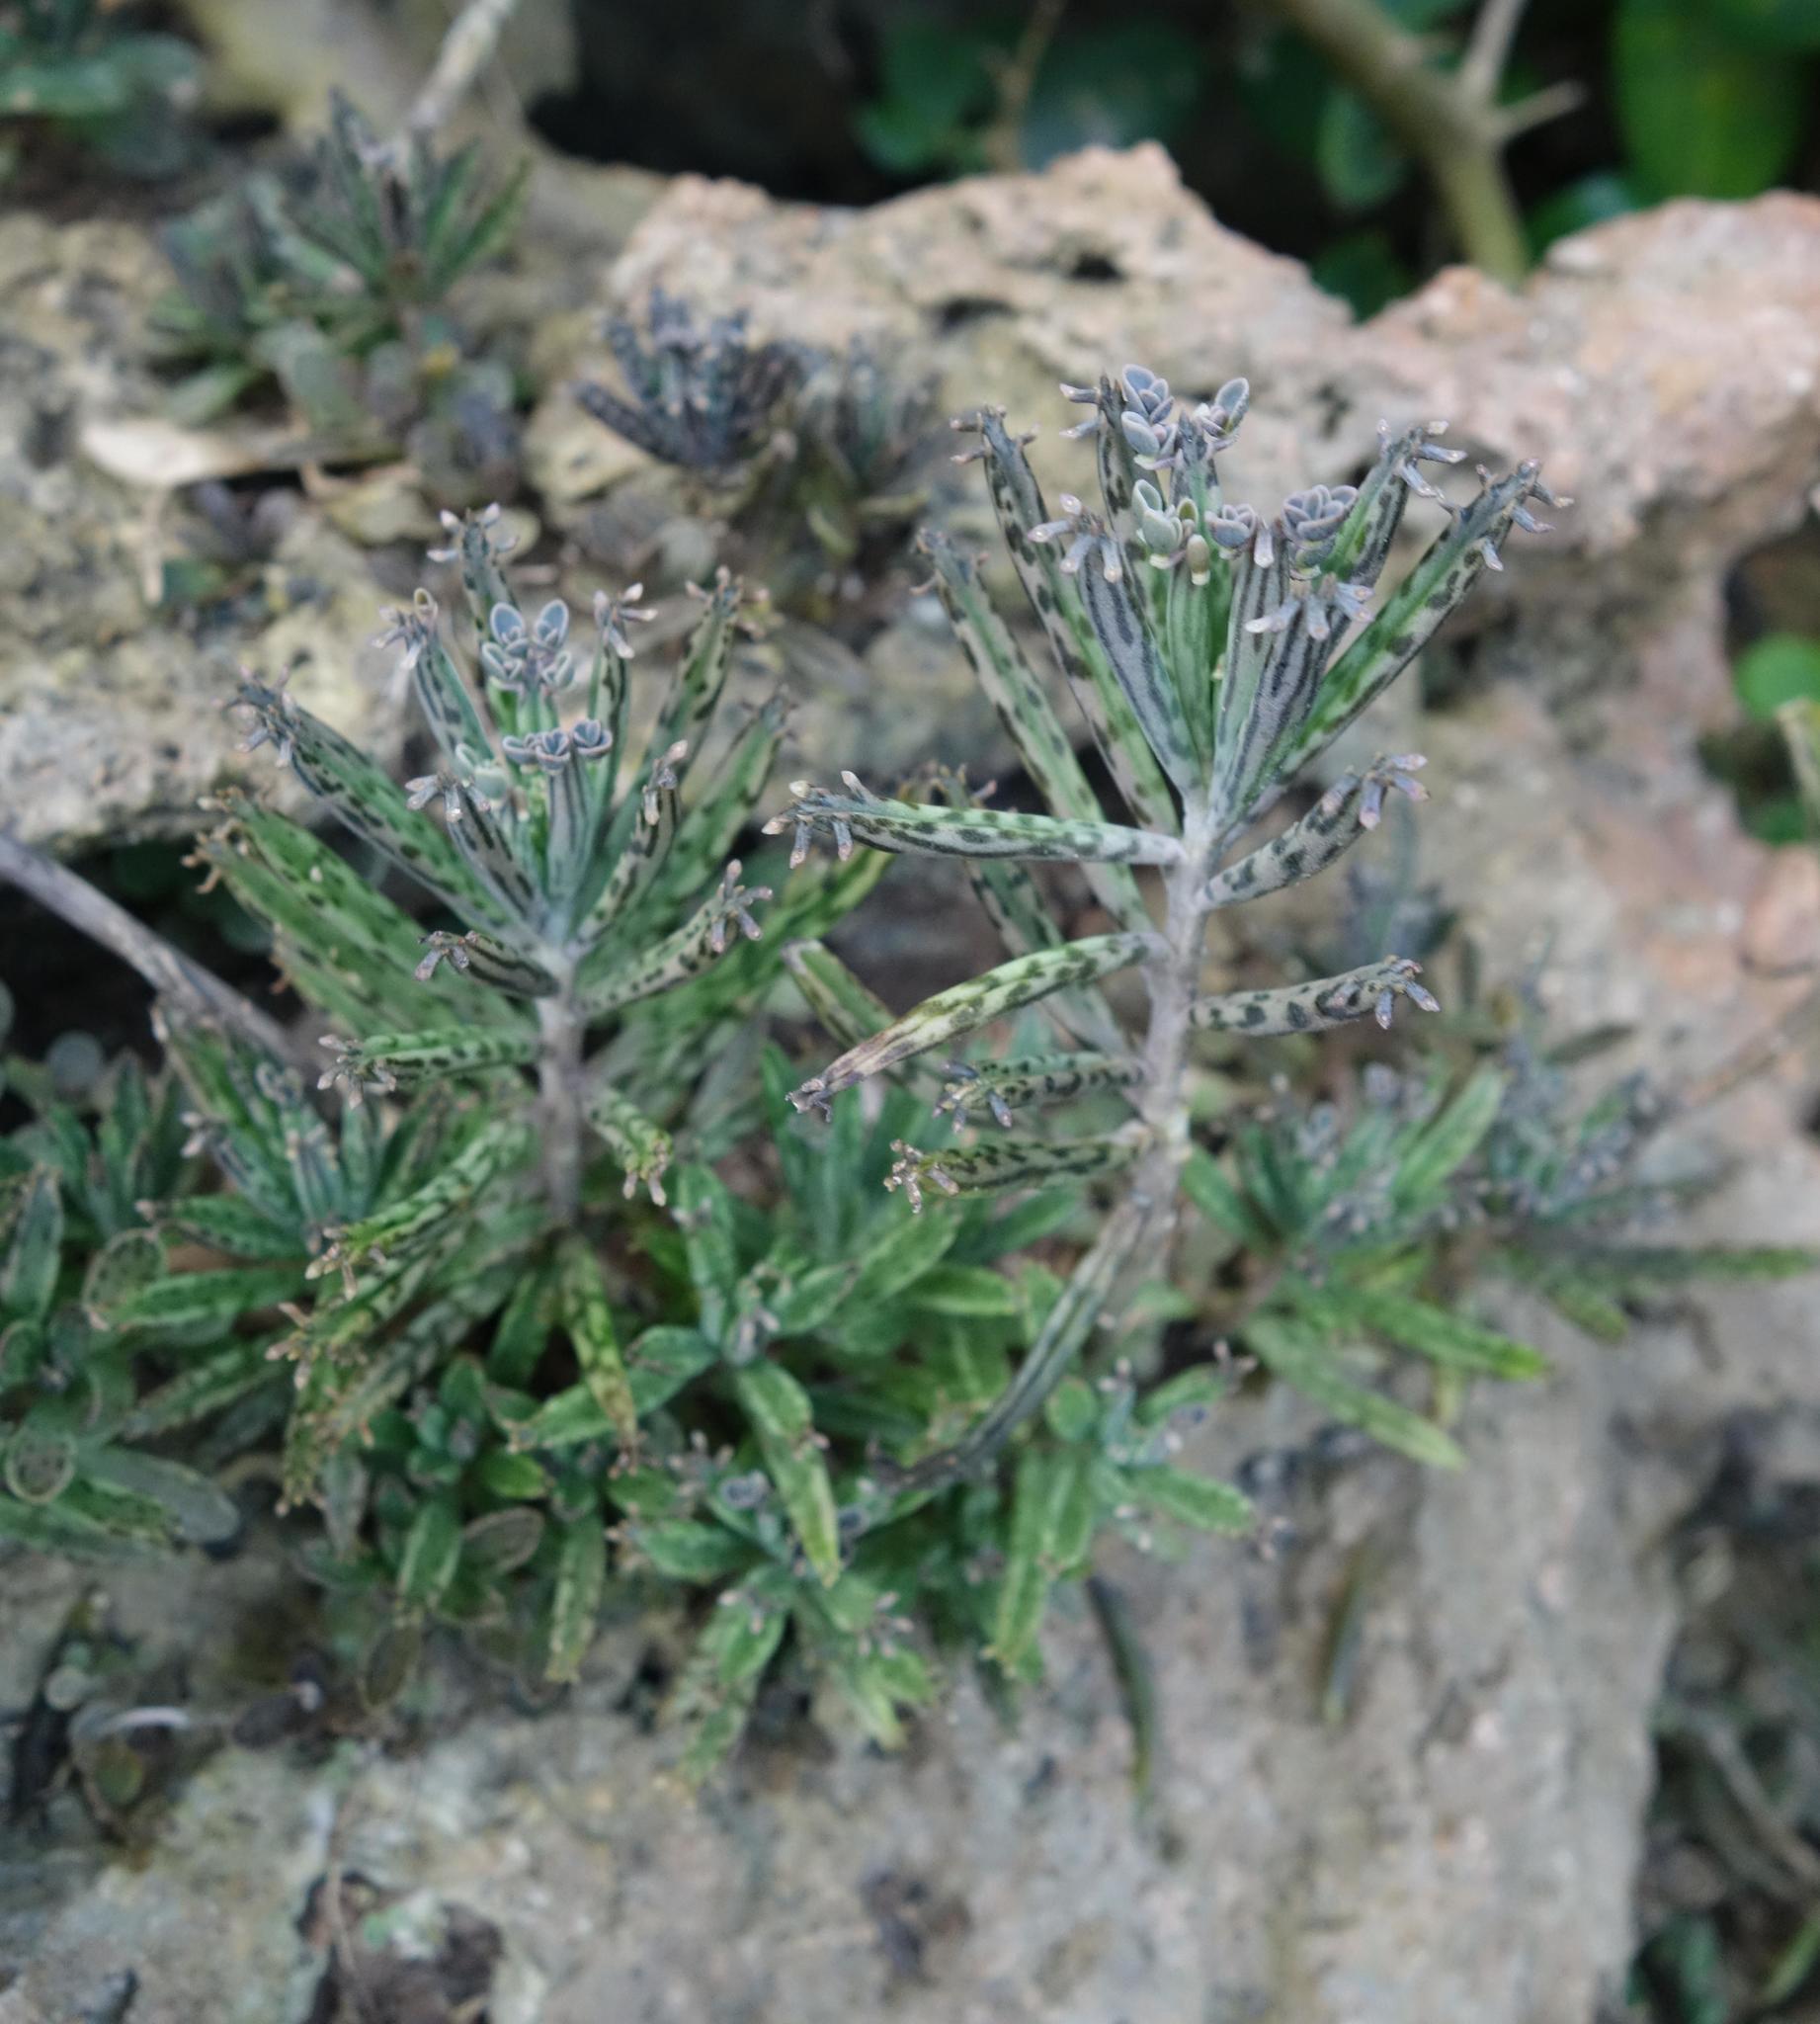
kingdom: Plantae
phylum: Tracheophyta
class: Magnoliopsida
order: Saxifragales
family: Crassulaceae
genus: Kalanchoe
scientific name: Kalanchoe delagoensis
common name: Chandelier plant
